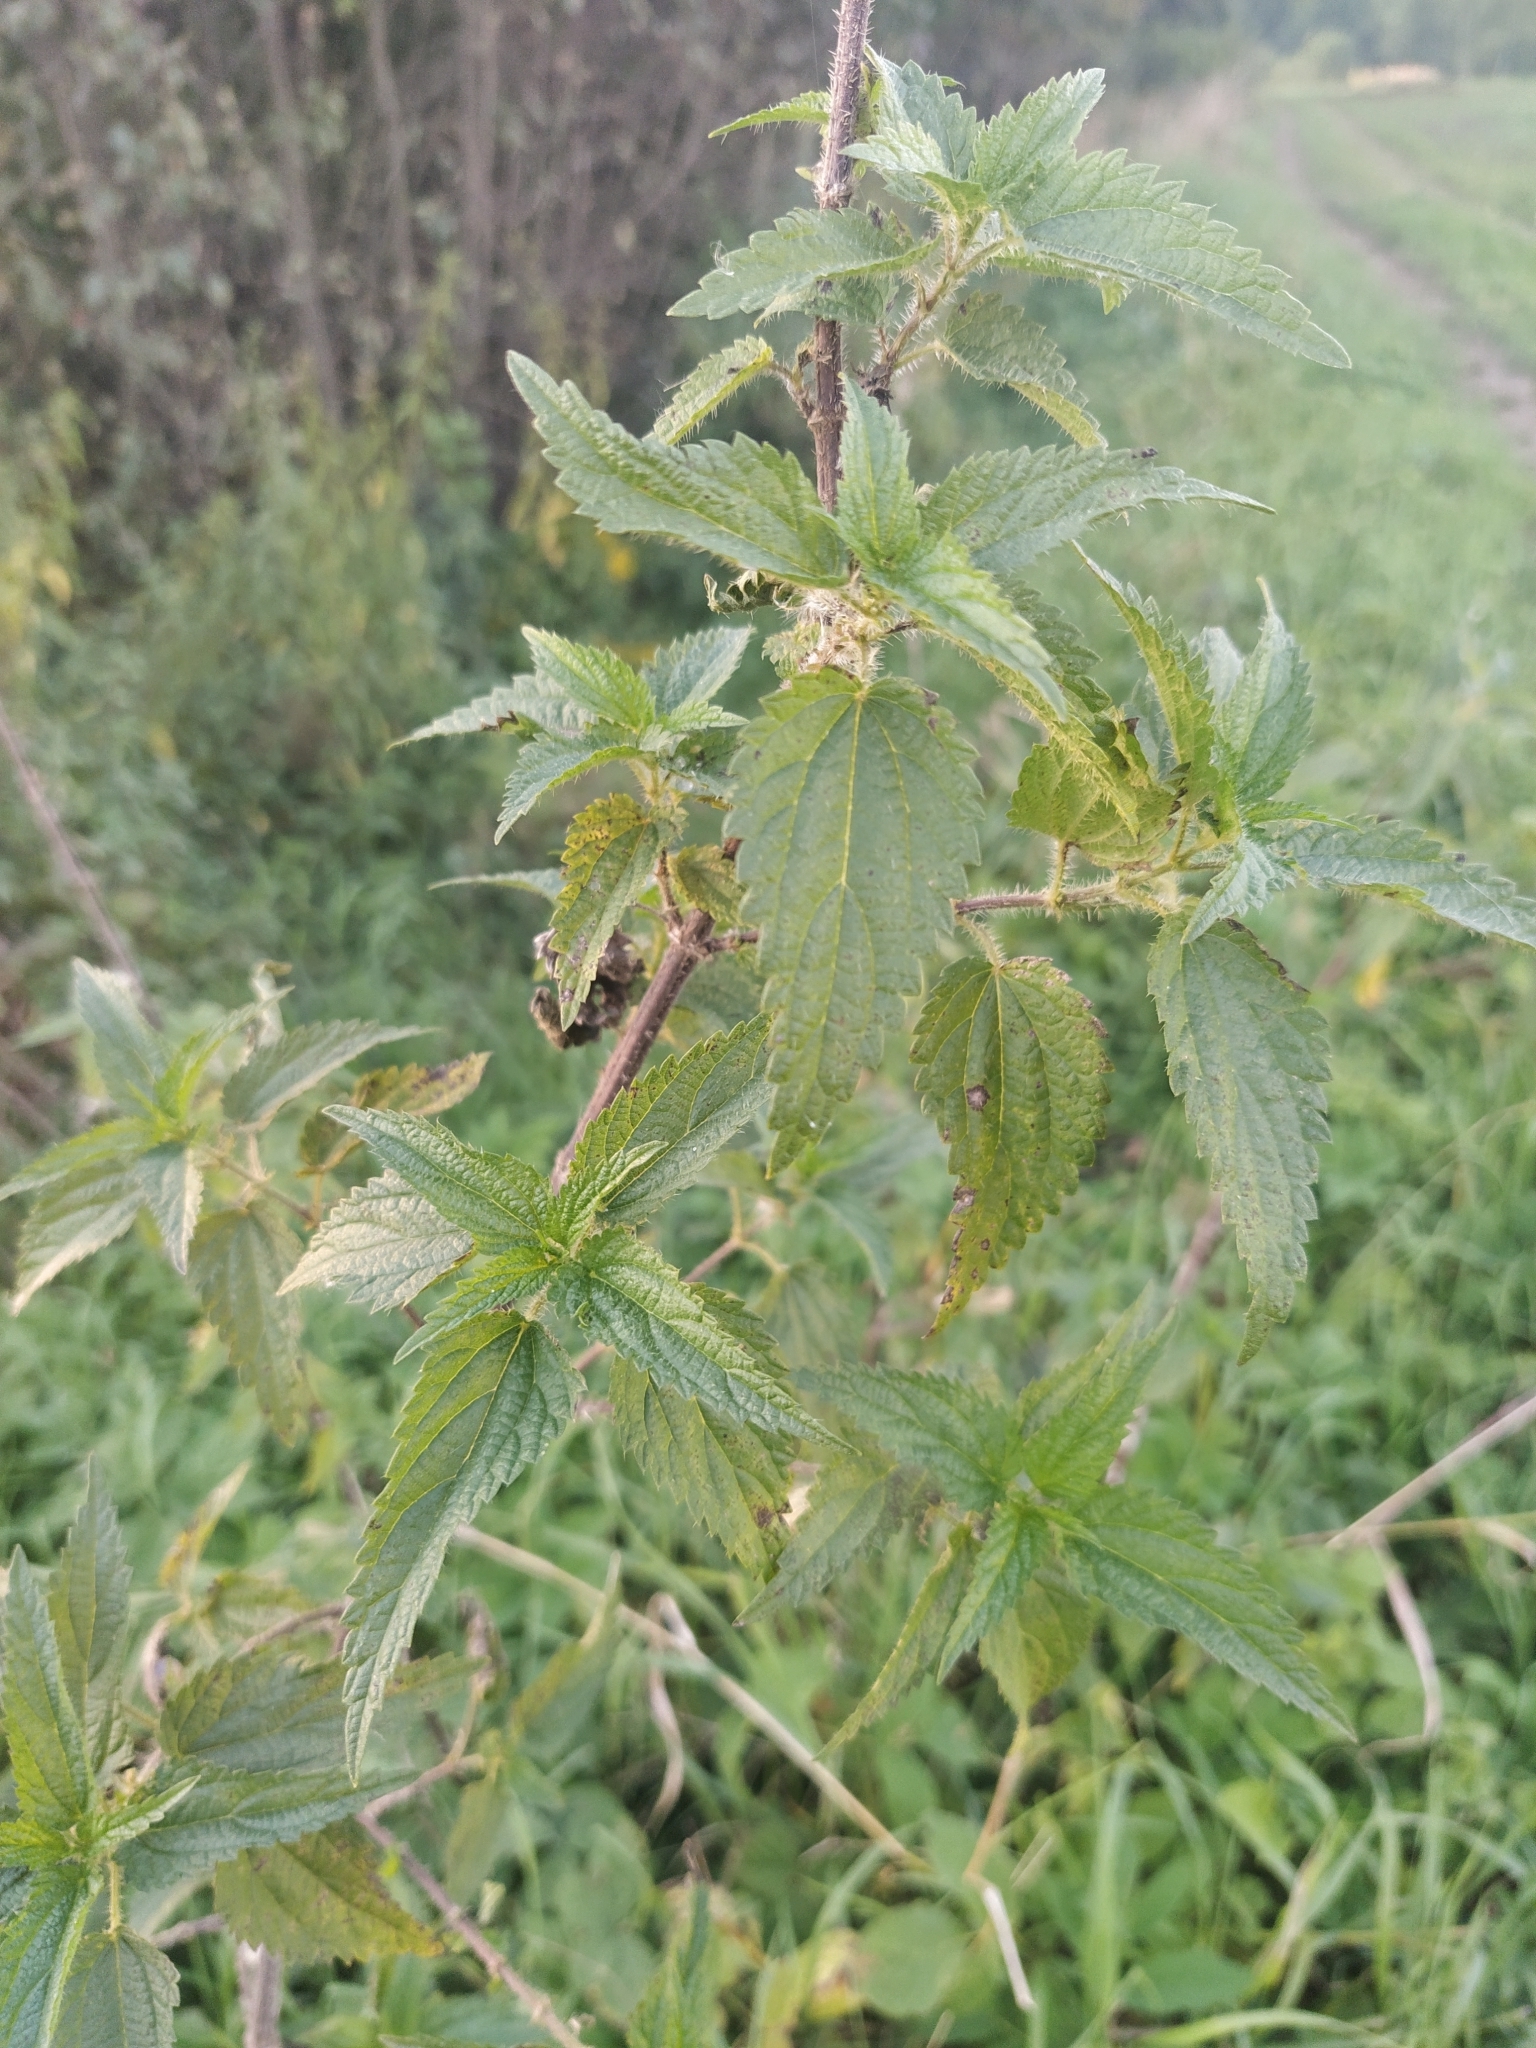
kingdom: Plantae
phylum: Tracheophyta
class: Magnoliopsida
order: Rosales
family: Urticaceae
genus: Urtica
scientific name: Urtica dioica
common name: Common nettle
